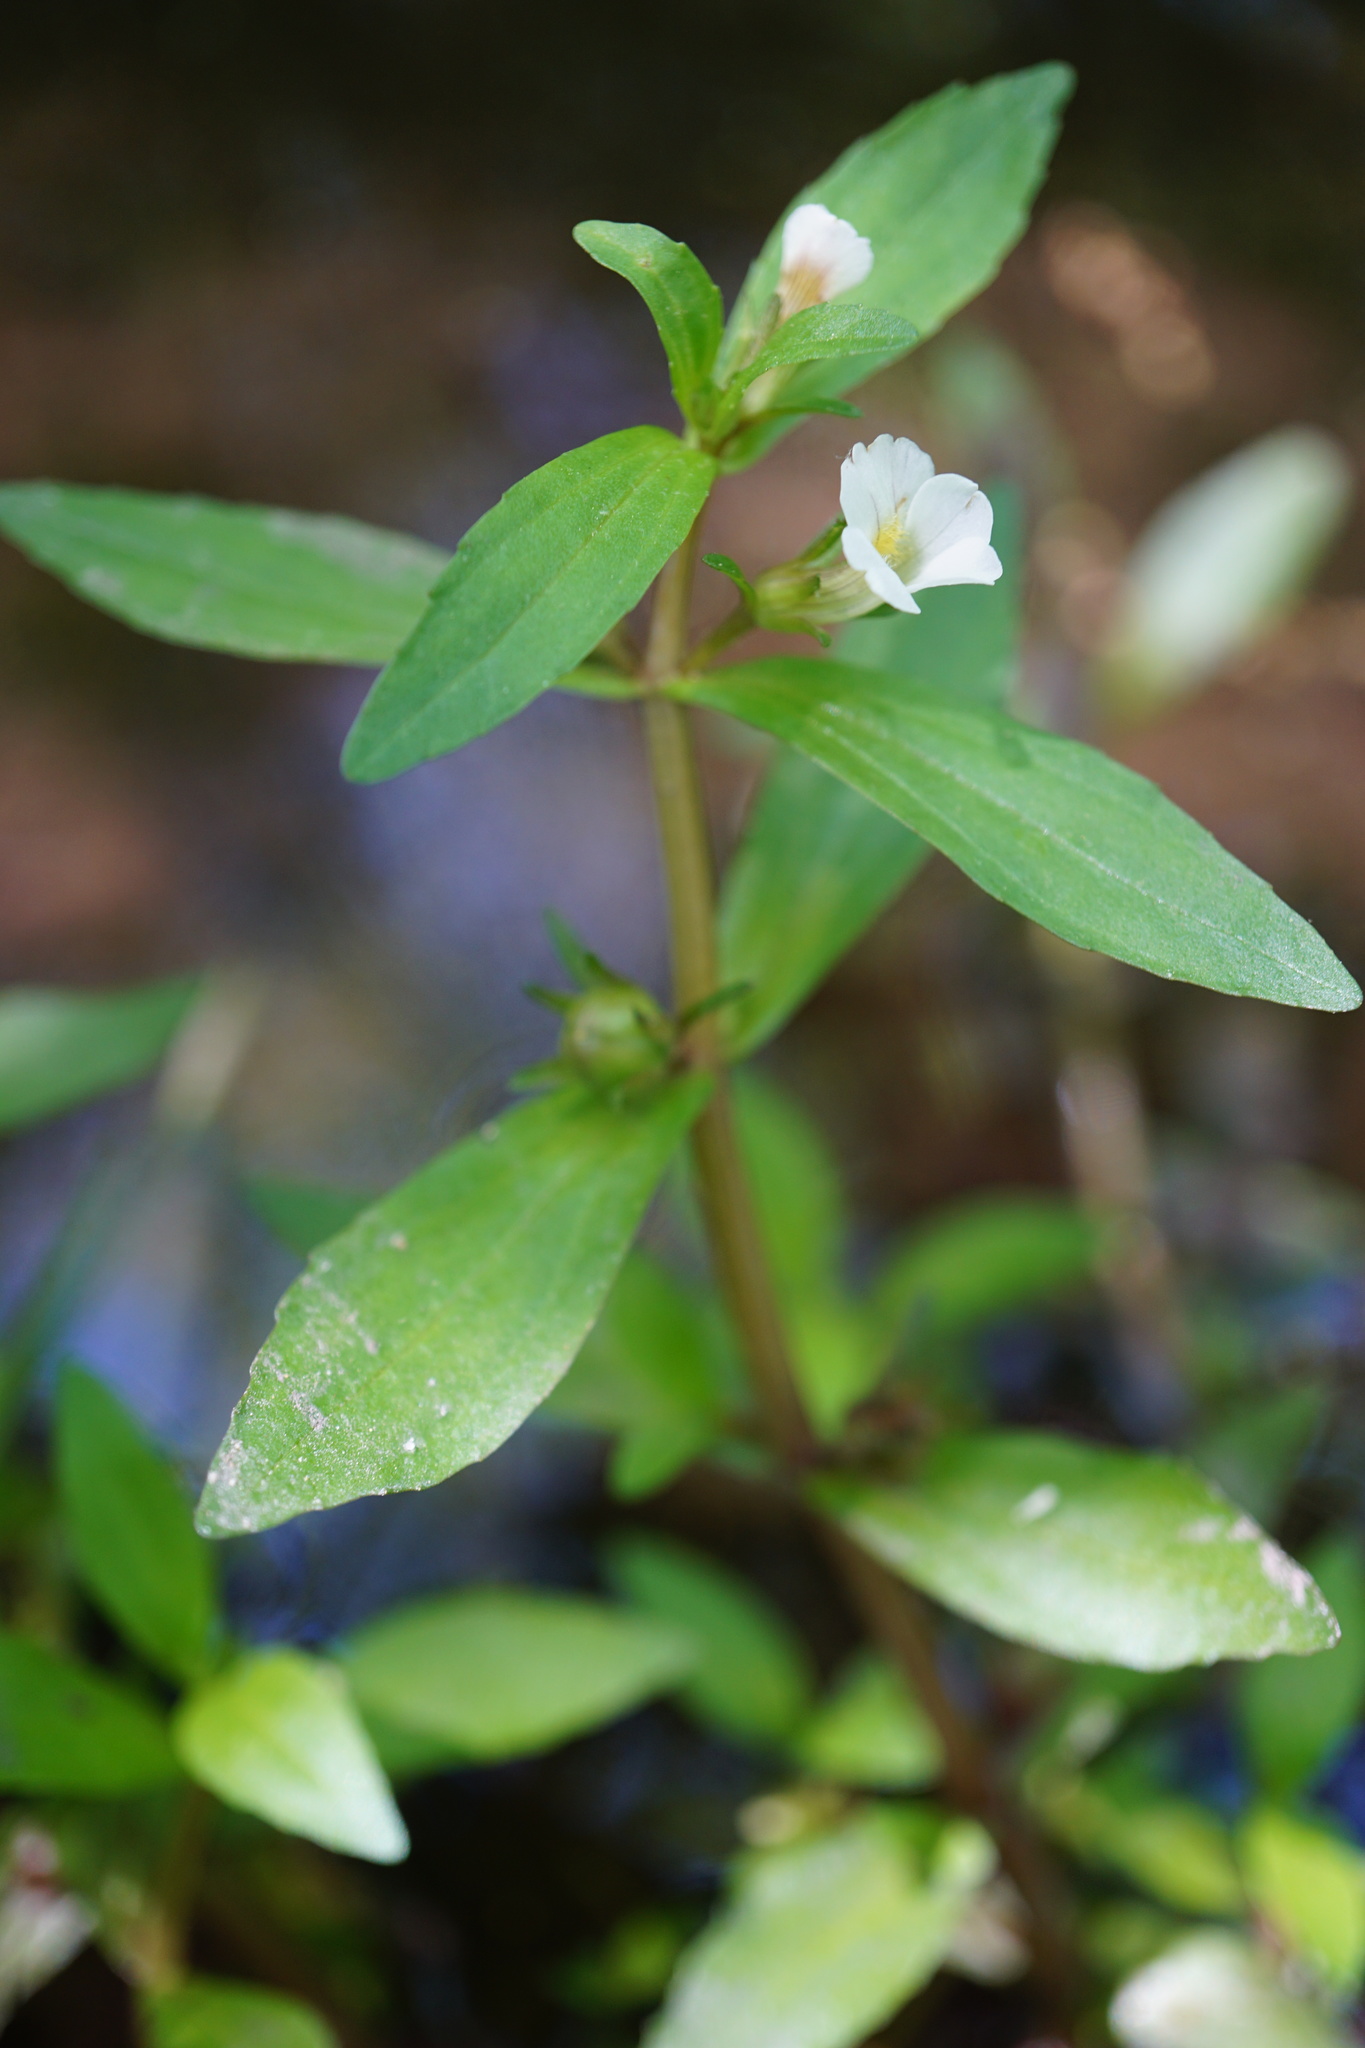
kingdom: Plantae
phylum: Tracheophyta
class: Magnoliopsida
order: Lamiales
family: Plantaginaceae
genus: Gratiola
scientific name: Gratiola virginiana
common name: Roundfruit hedgehyssop
